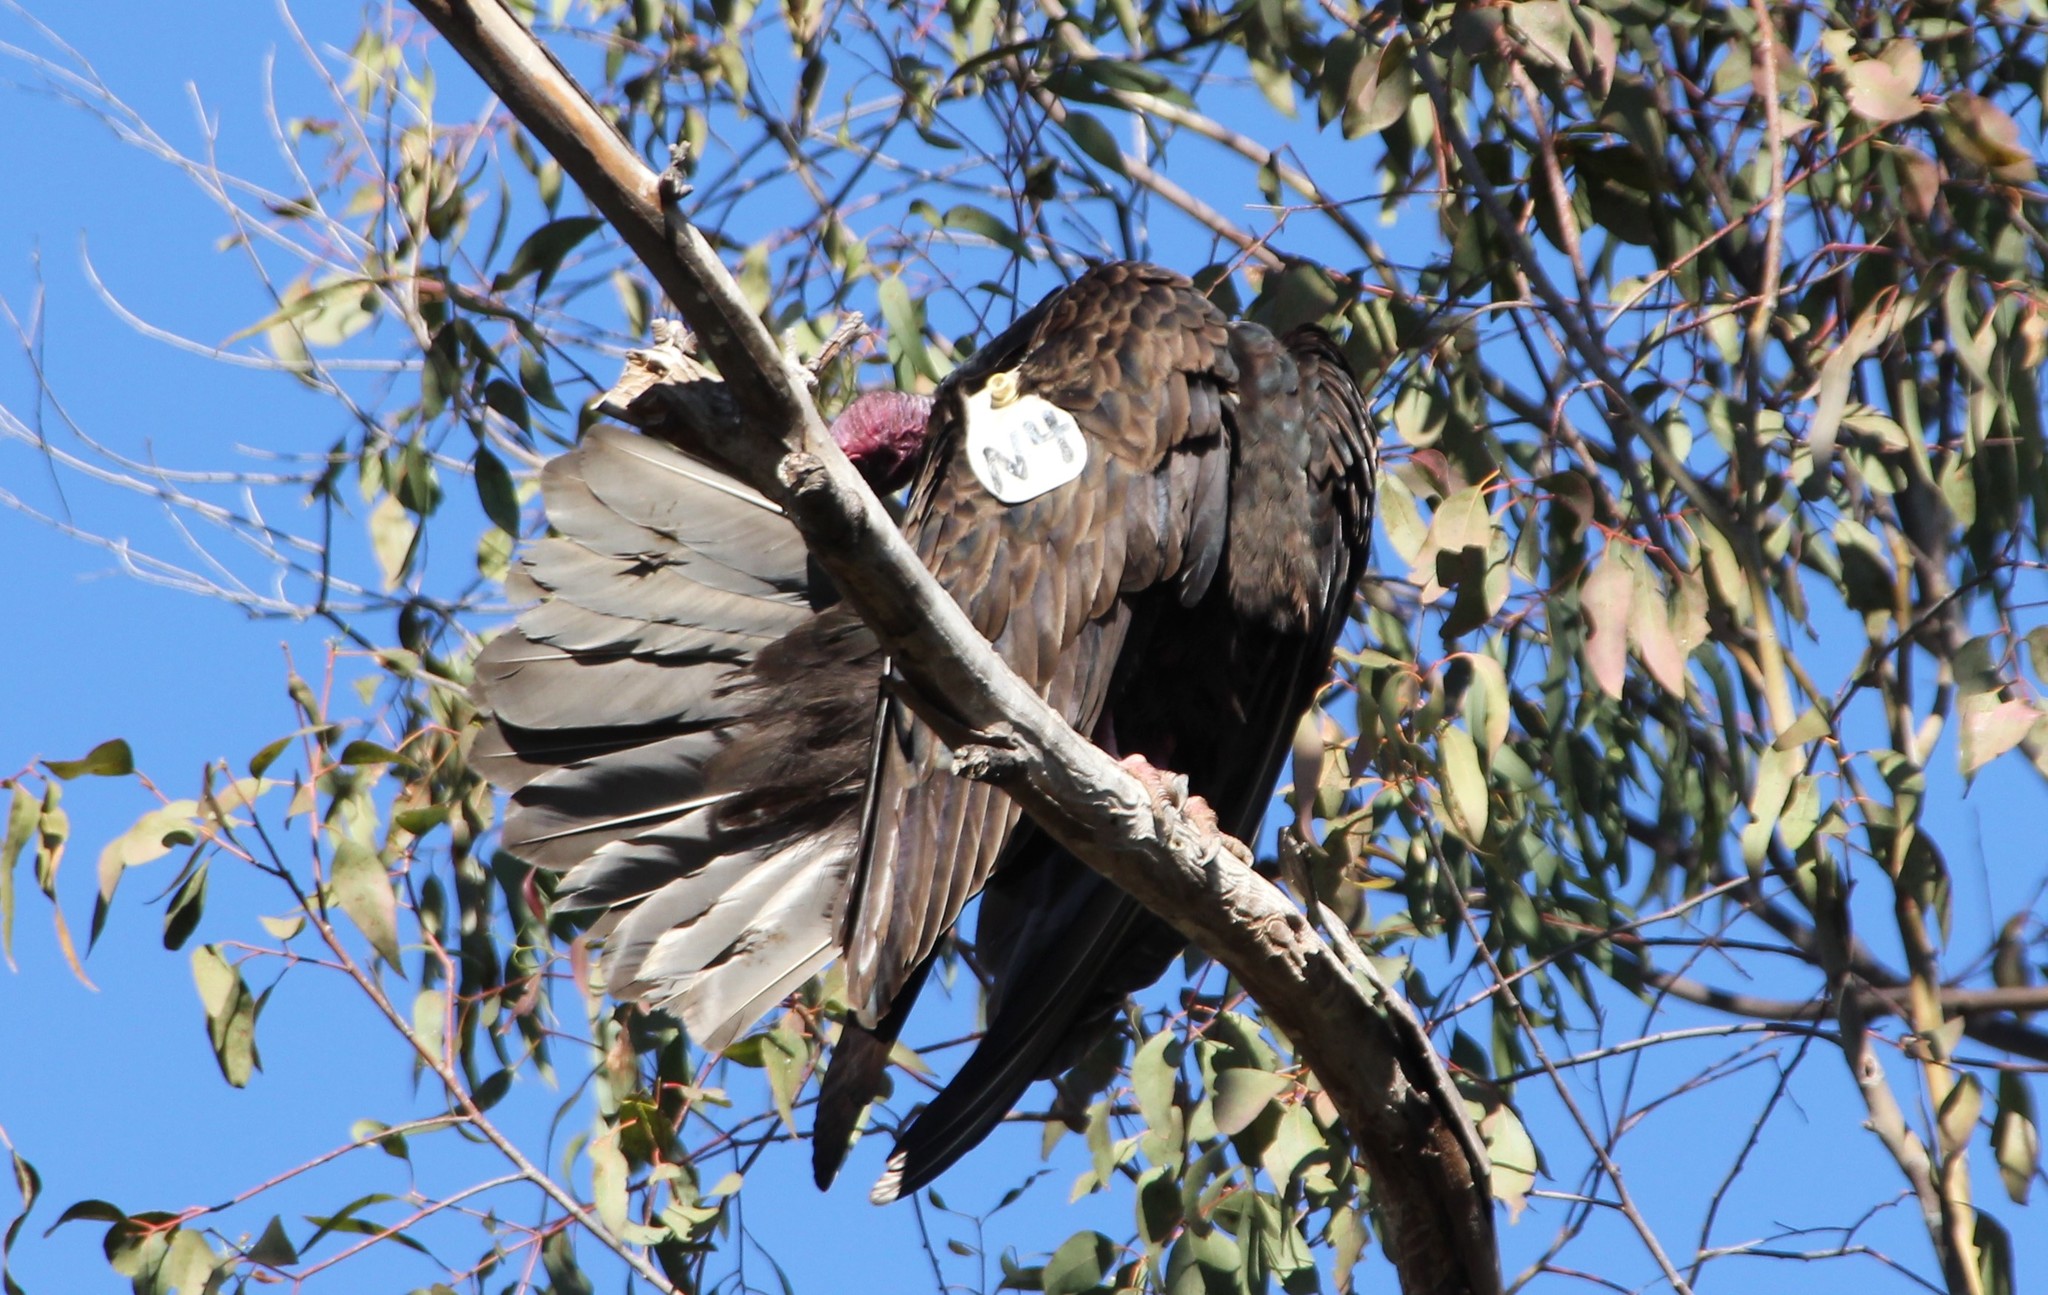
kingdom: Animalia
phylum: Chordata
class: Aves
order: Accipitriformes
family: Cathartidae
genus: Cathartes
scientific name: Cathartes aura
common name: Turkey vulture
